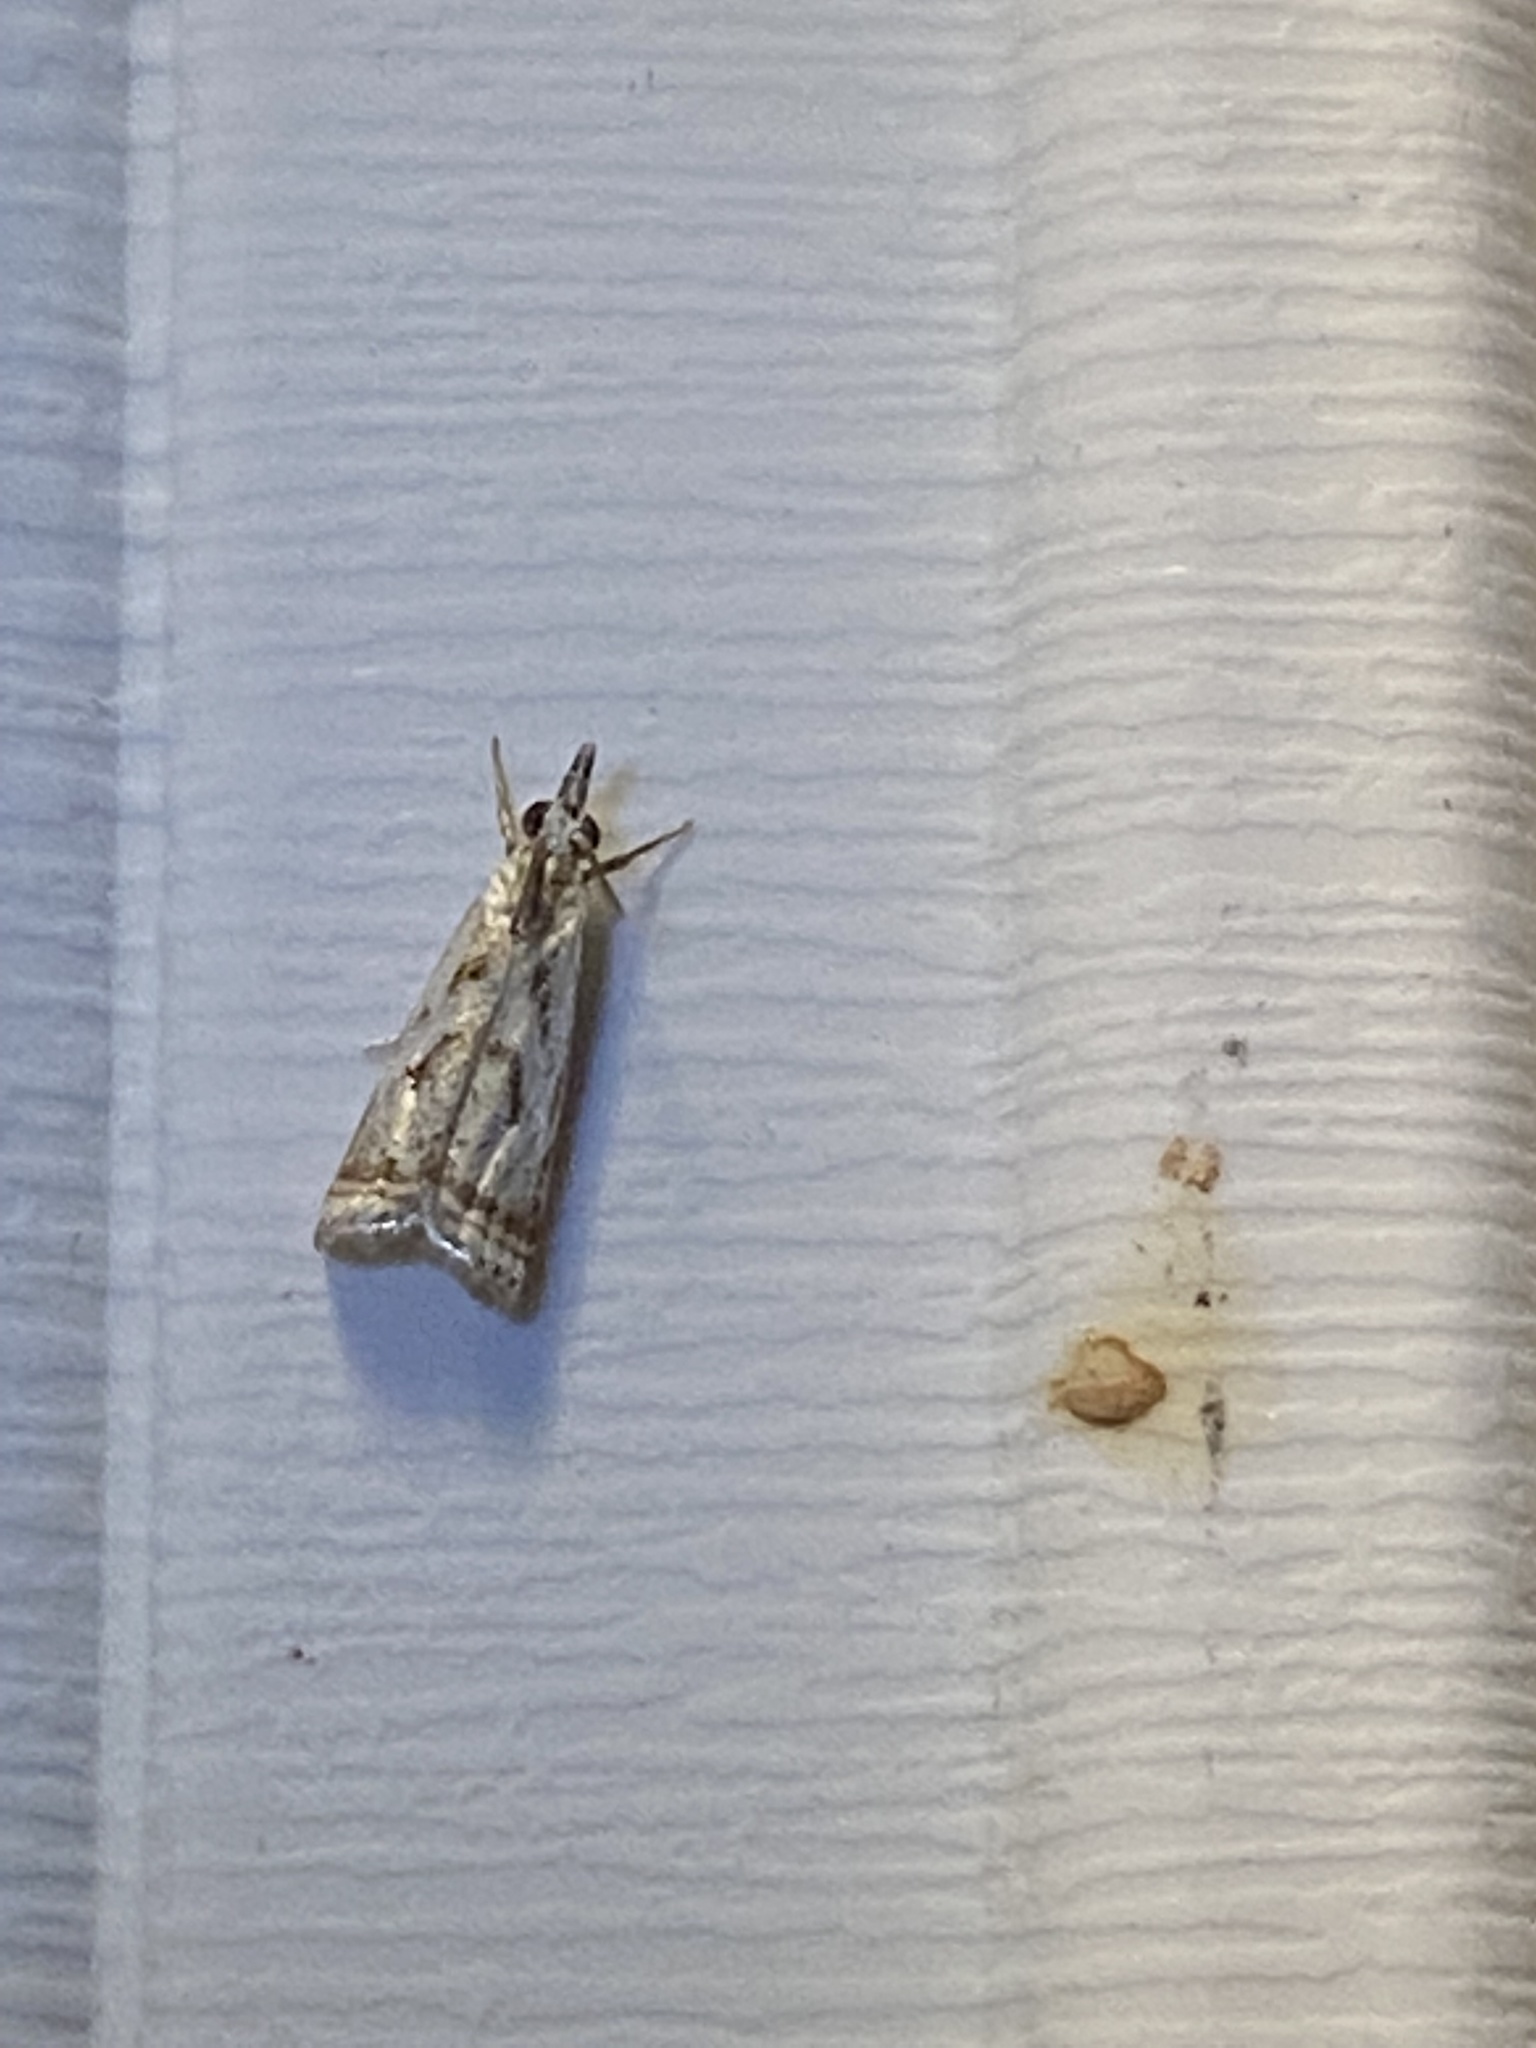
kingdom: Animalia
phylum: Arthropoda
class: Insecta
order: Lepidoptera
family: Crambidae
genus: Microcrambus
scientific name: Microcrambus elegans
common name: Elegant grass-veneer
